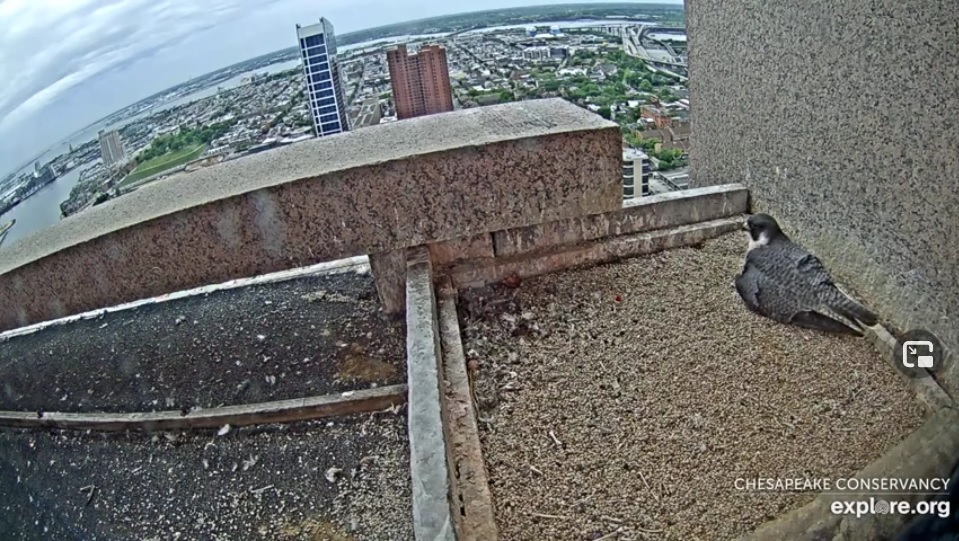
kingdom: Animalia
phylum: Chordata
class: Aves
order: Falconiformes
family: Falconidae
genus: Falco
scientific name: Falco peregrinus
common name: Peregrine falcon
